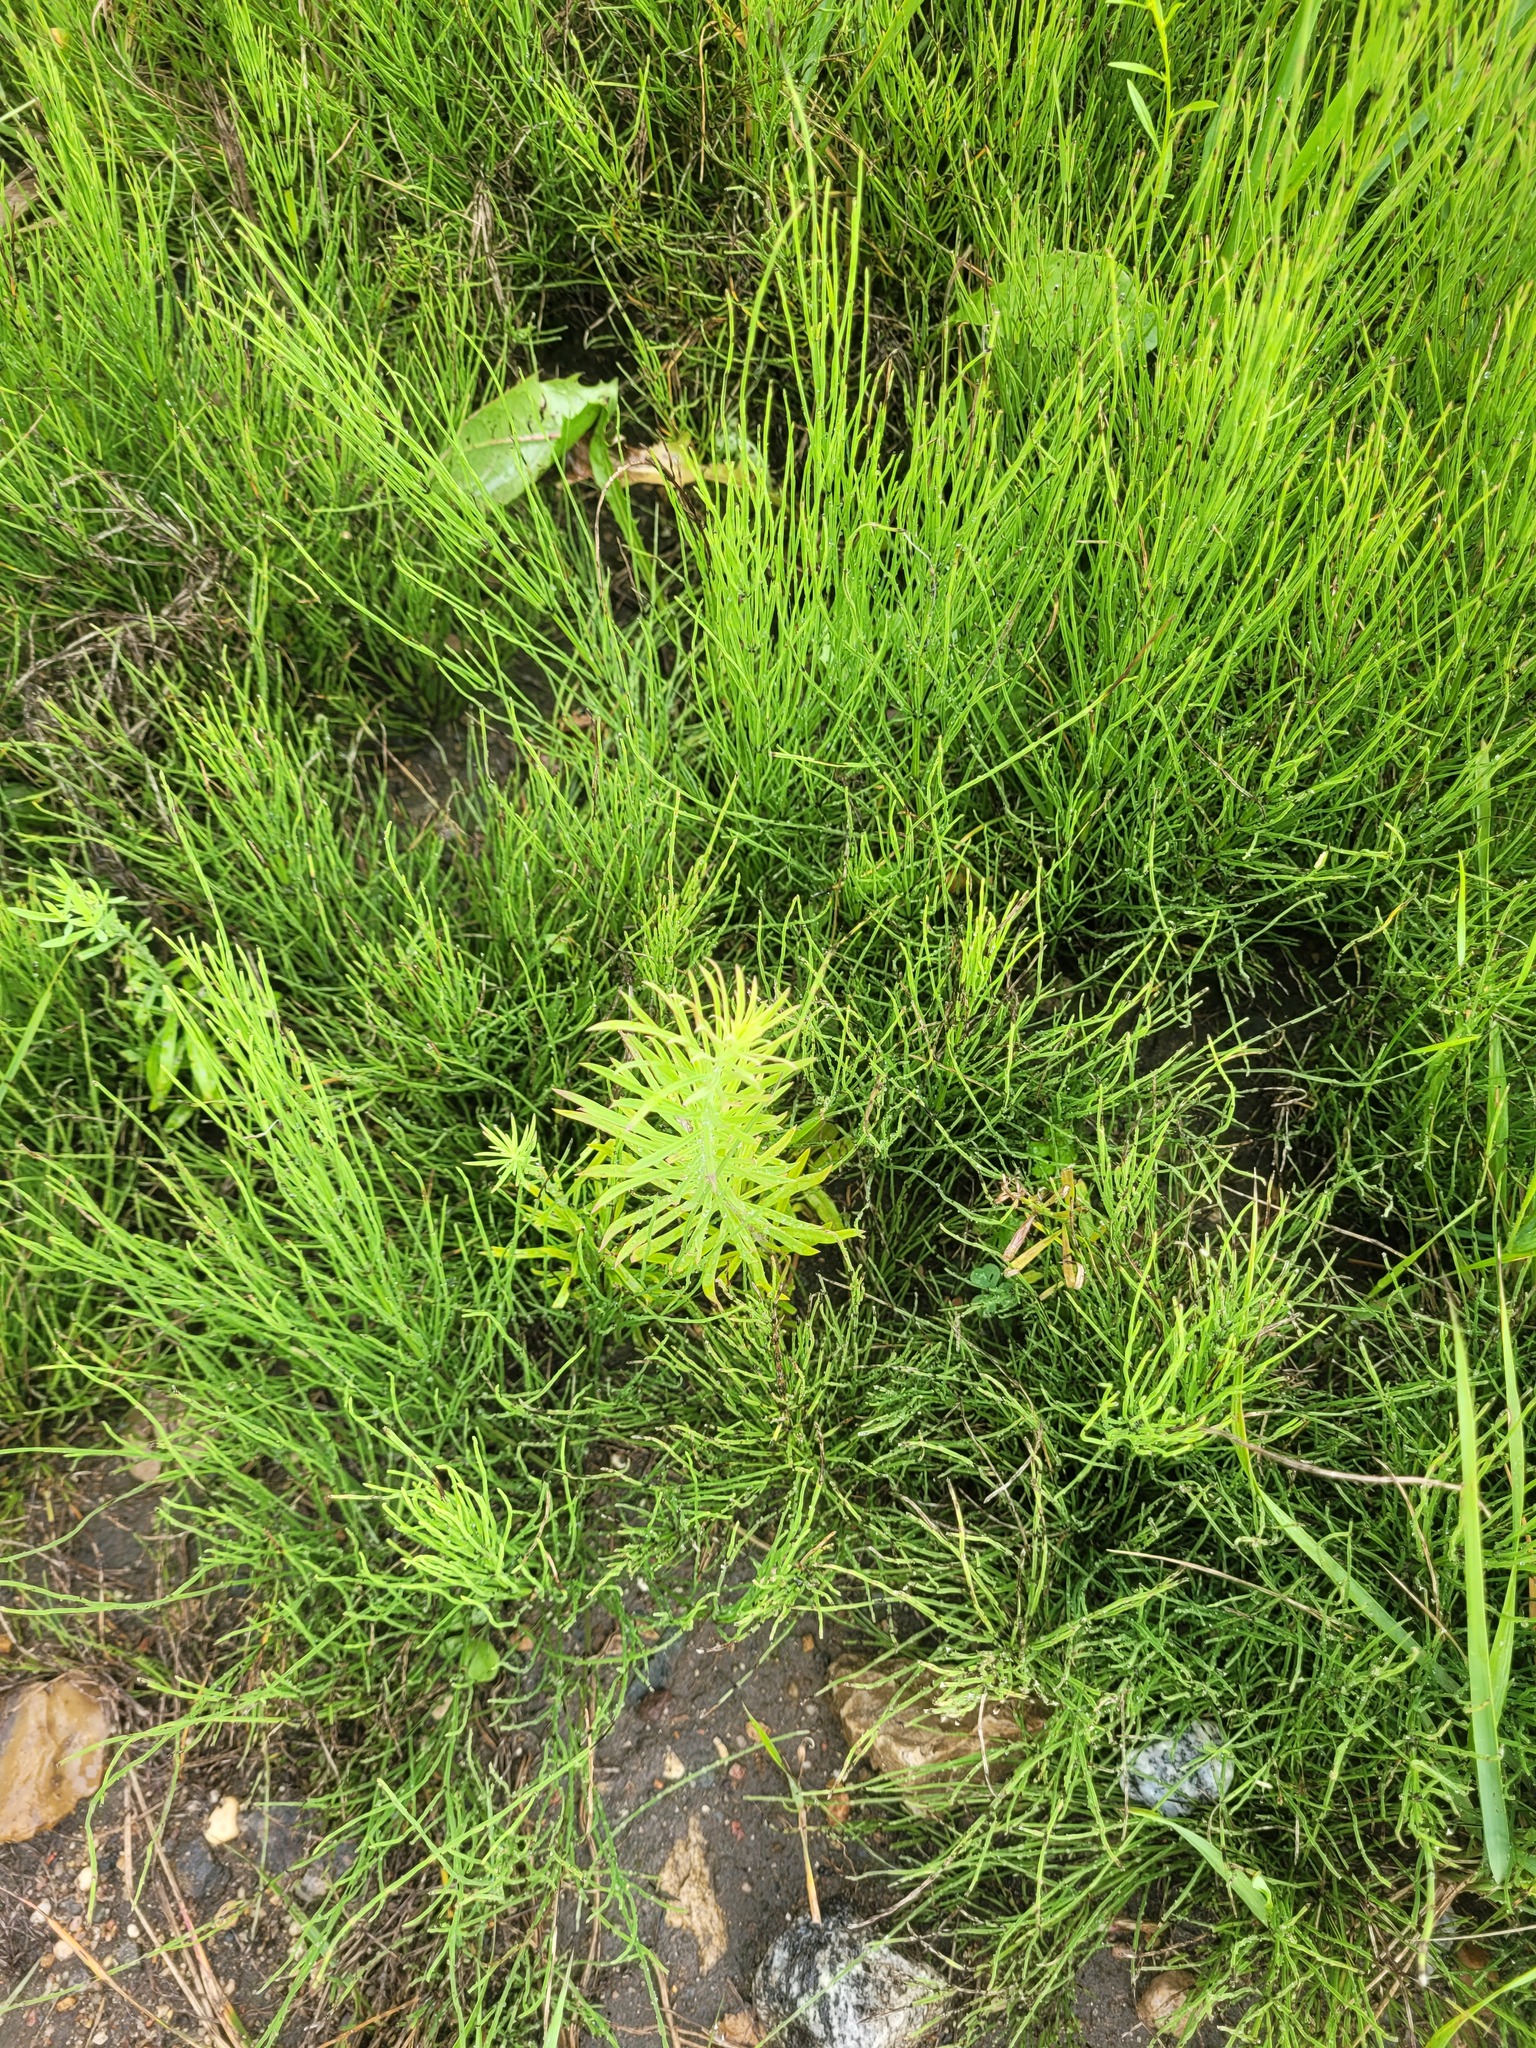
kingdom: Plantae
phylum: Tracheophyta
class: Polypodiopsida
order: Equisetales
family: Equisetaceae
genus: Equisetum
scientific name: Equisetum arvense
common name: Field horsetail
